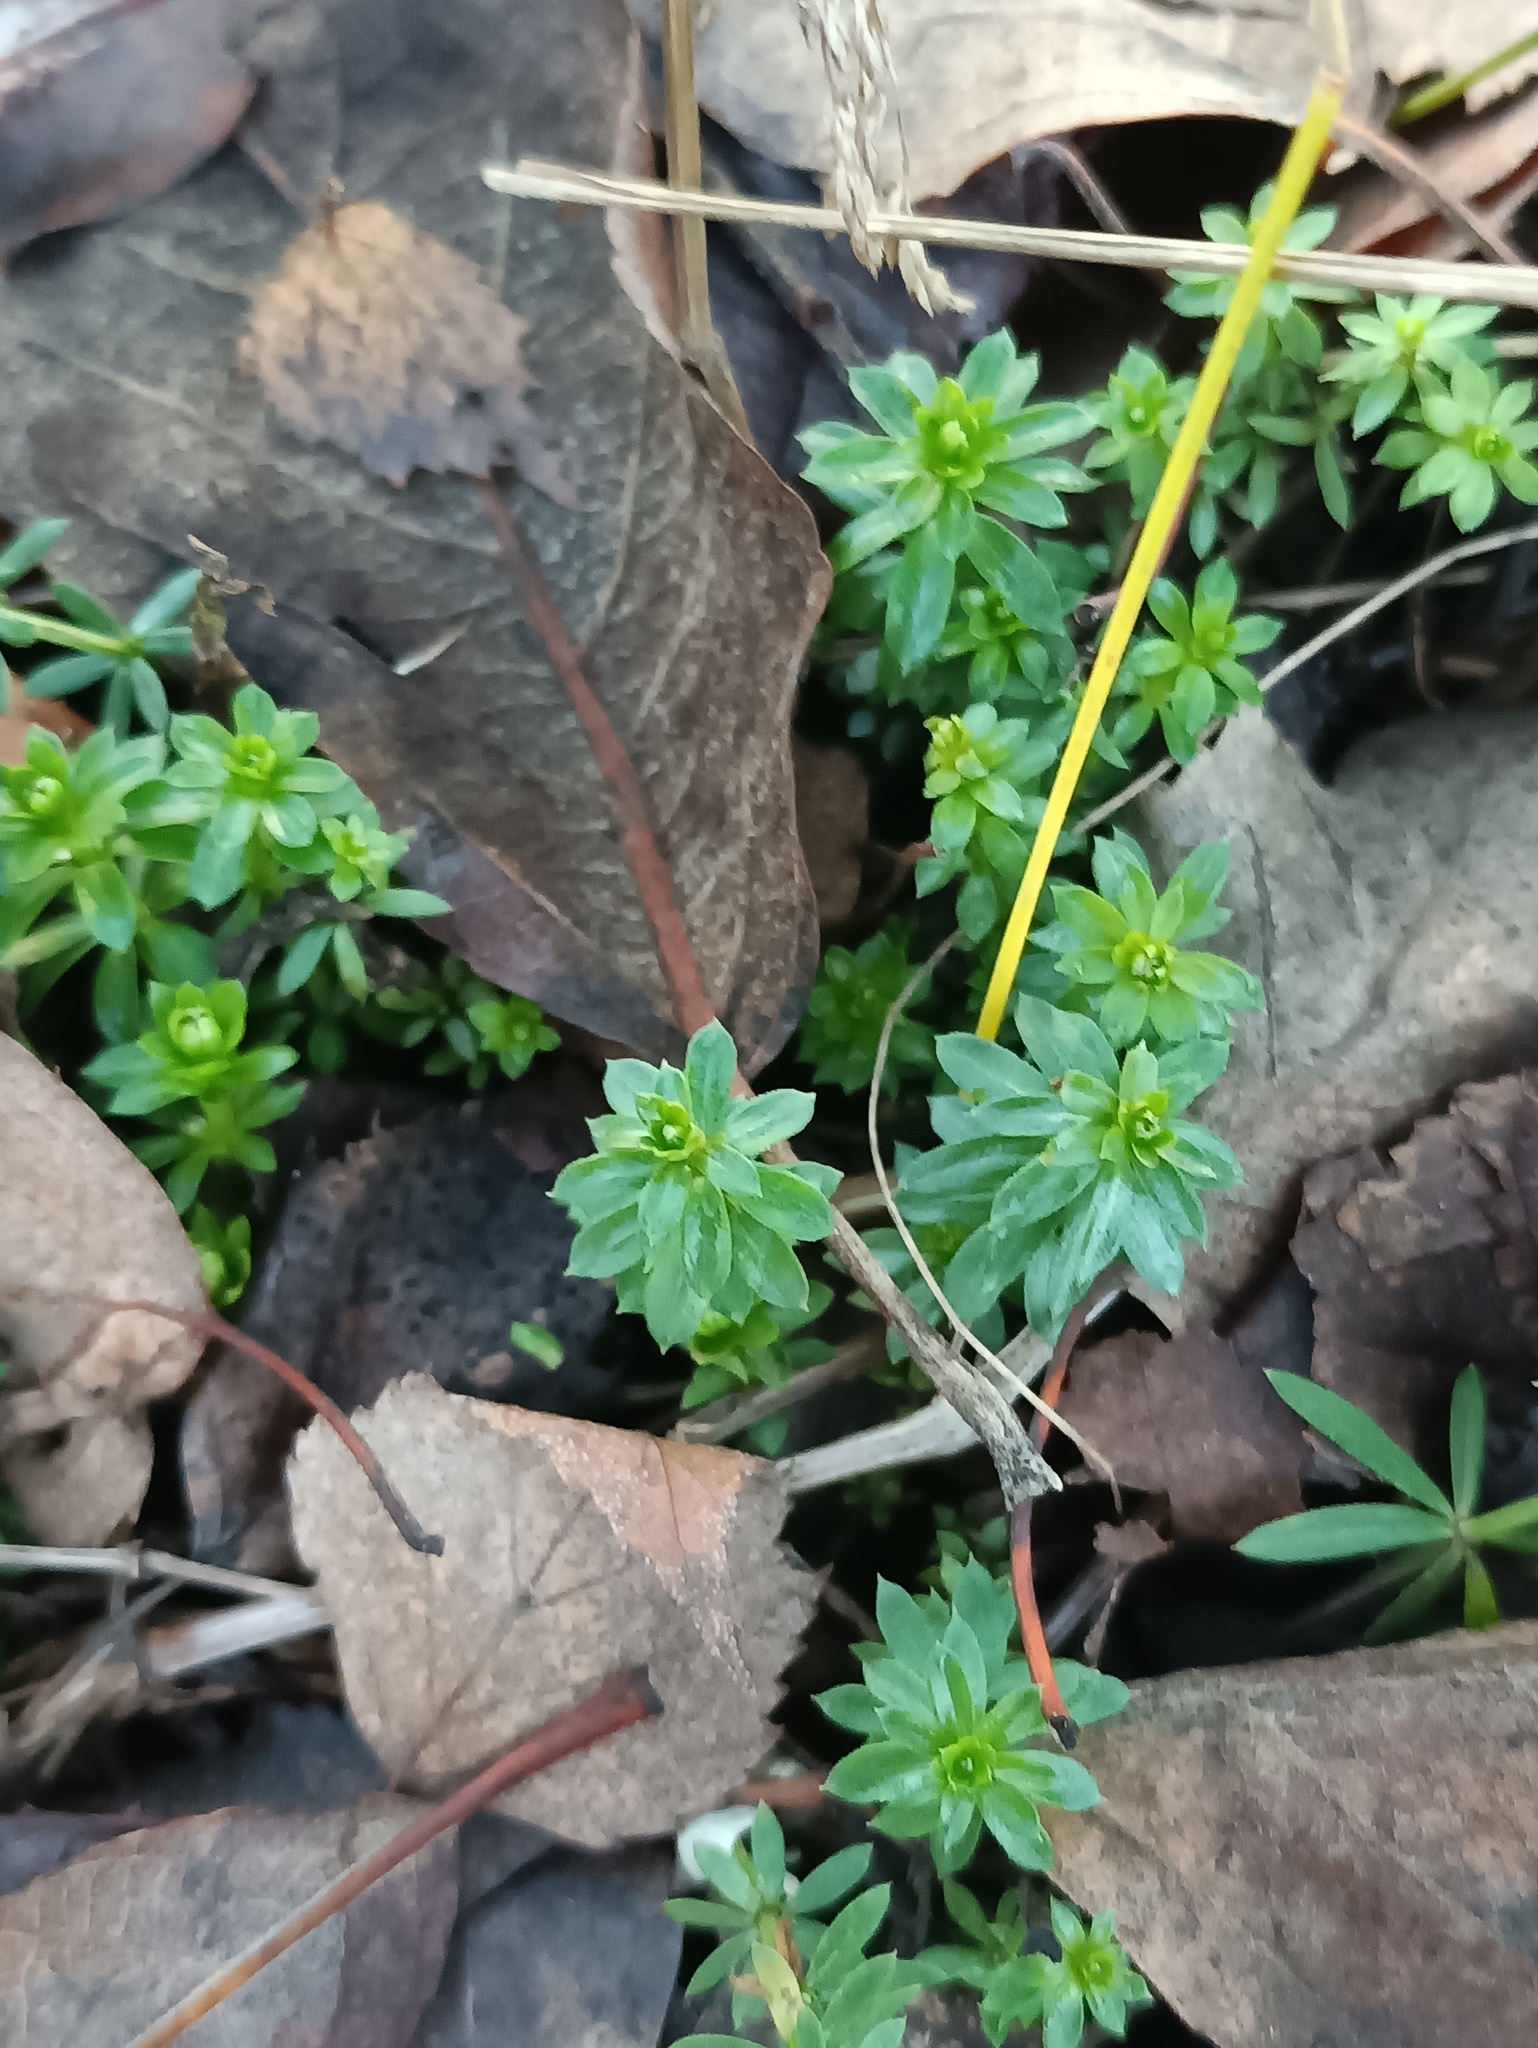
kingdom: Plantae
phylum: Tracheophyta
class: Magnoliopsida
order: Gentianales
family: Rubiaceae
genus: Galium
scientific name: Galium mollugo
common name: Hedge bedstraw
